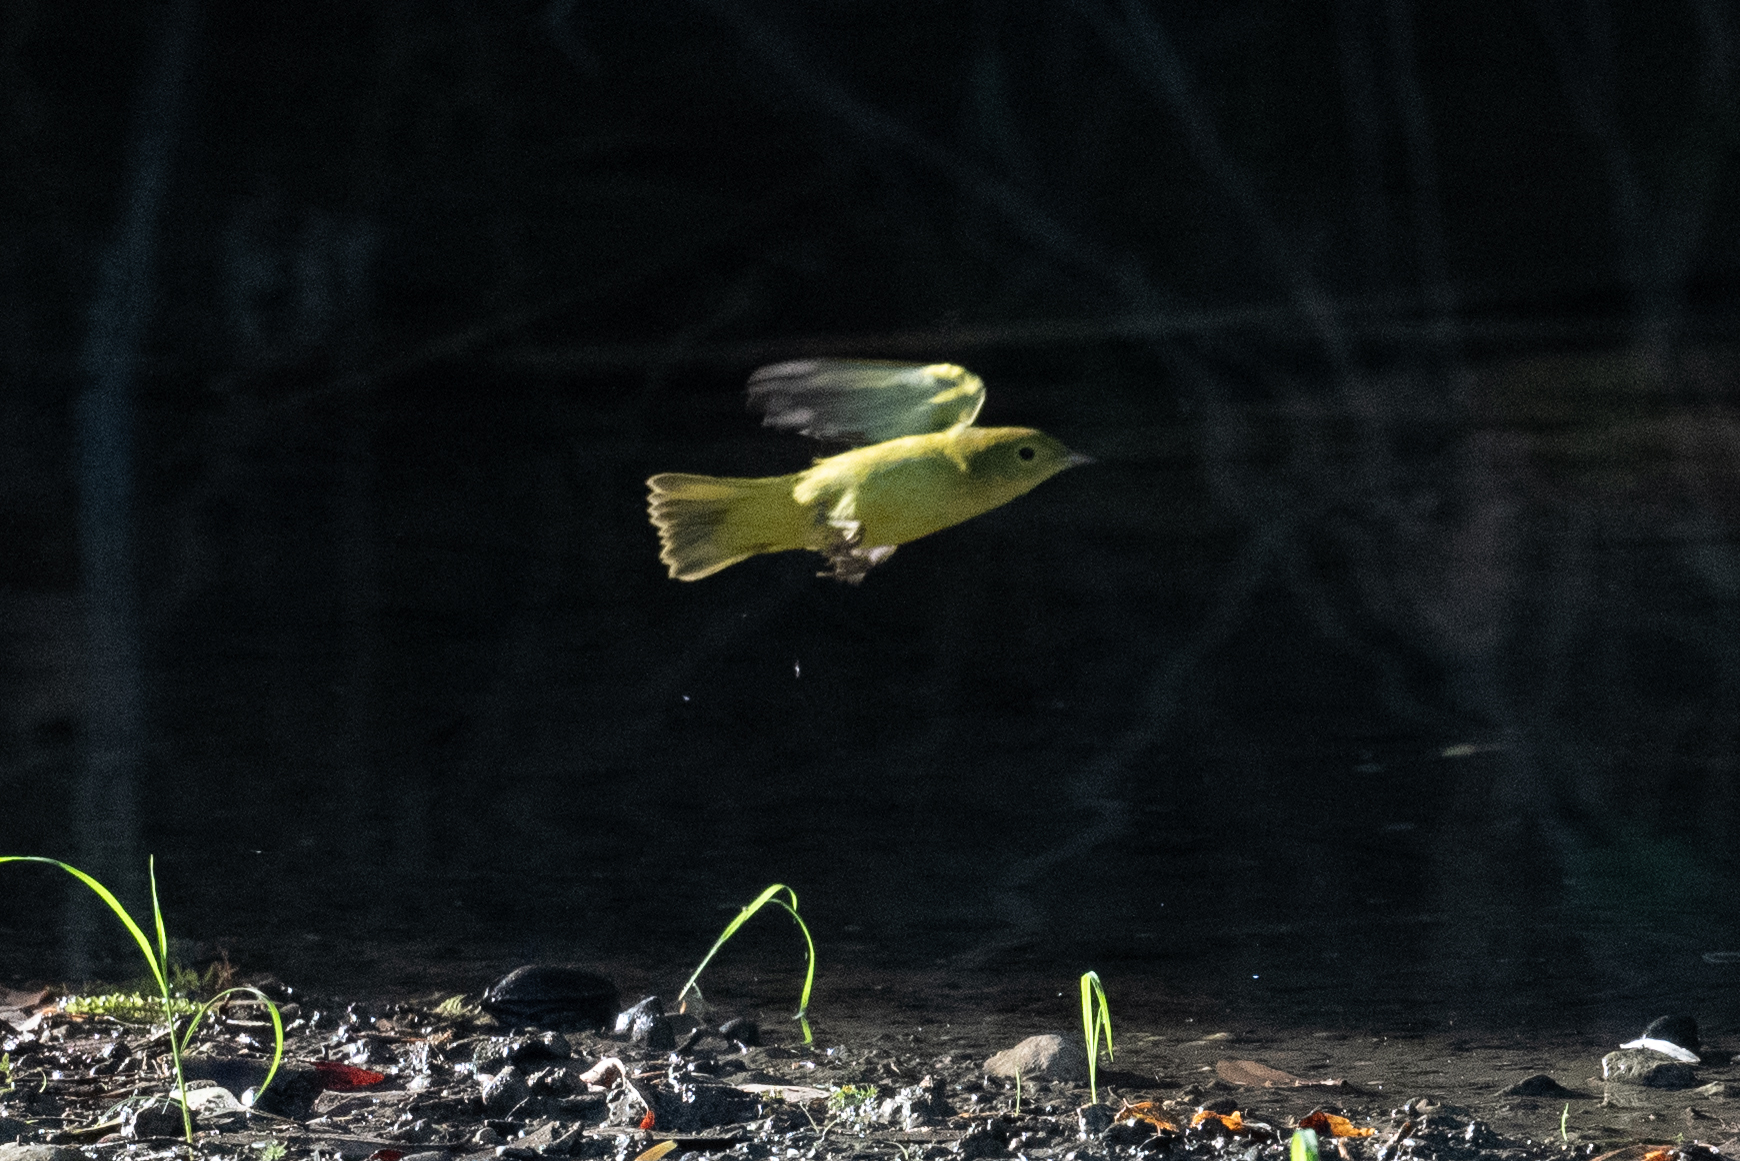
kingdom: Animalia
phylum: Chordata
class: Aves
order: Passeriformes
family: Parulidae
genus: Setophaga
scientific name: Setophaga petechia
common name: Yellow warbler
